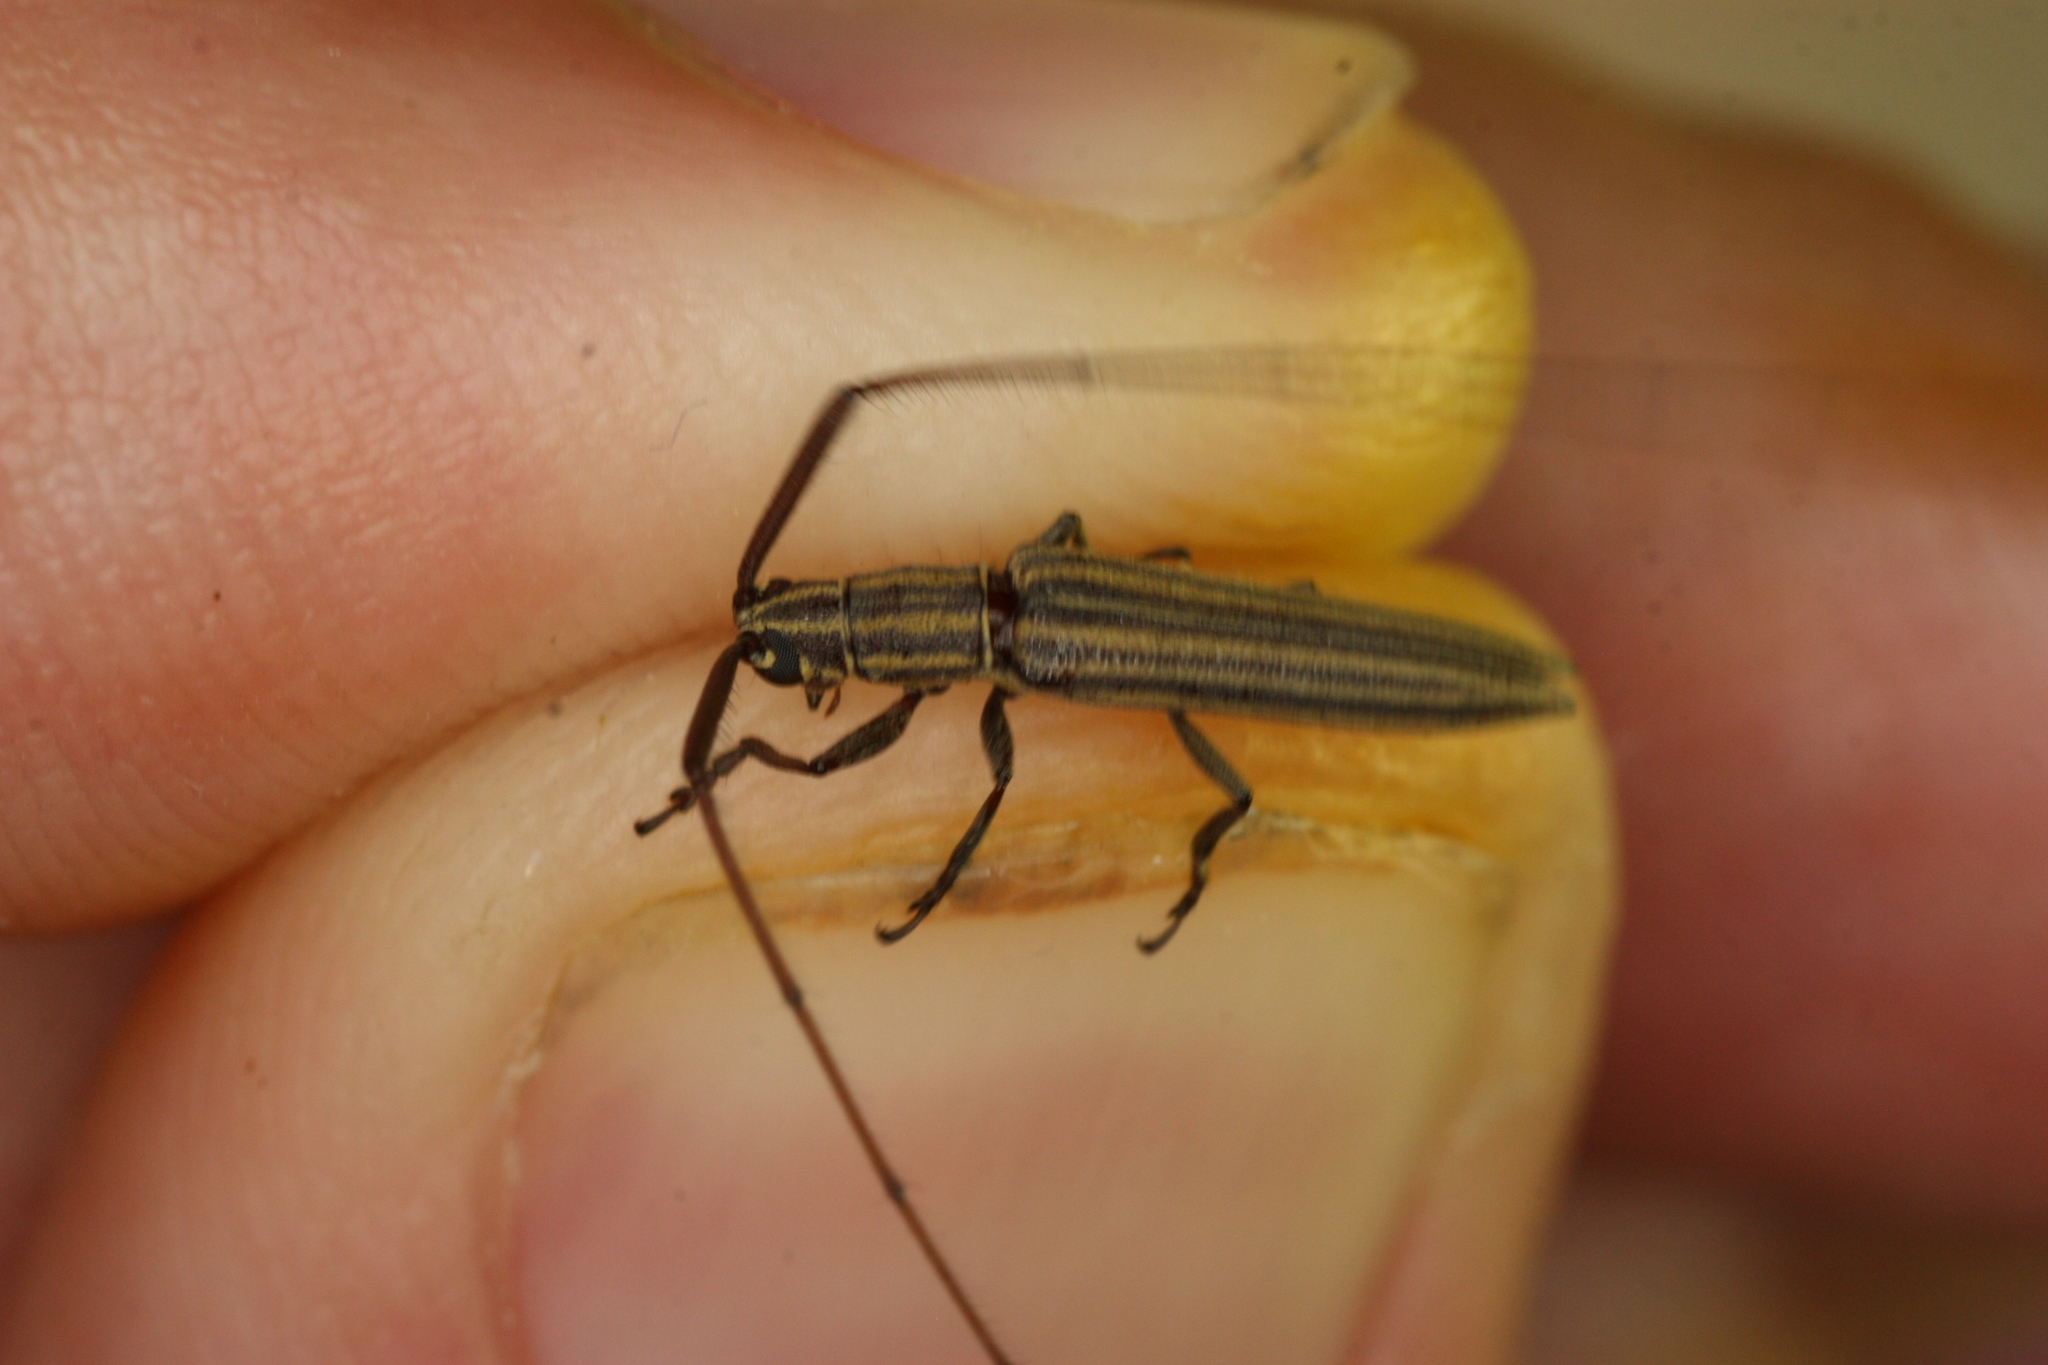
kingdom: Animalia
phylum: Arthropoda
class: Insecta
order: Coleoptera
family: Cerambycidae
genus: Hippopsis
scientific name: Hippopsis
